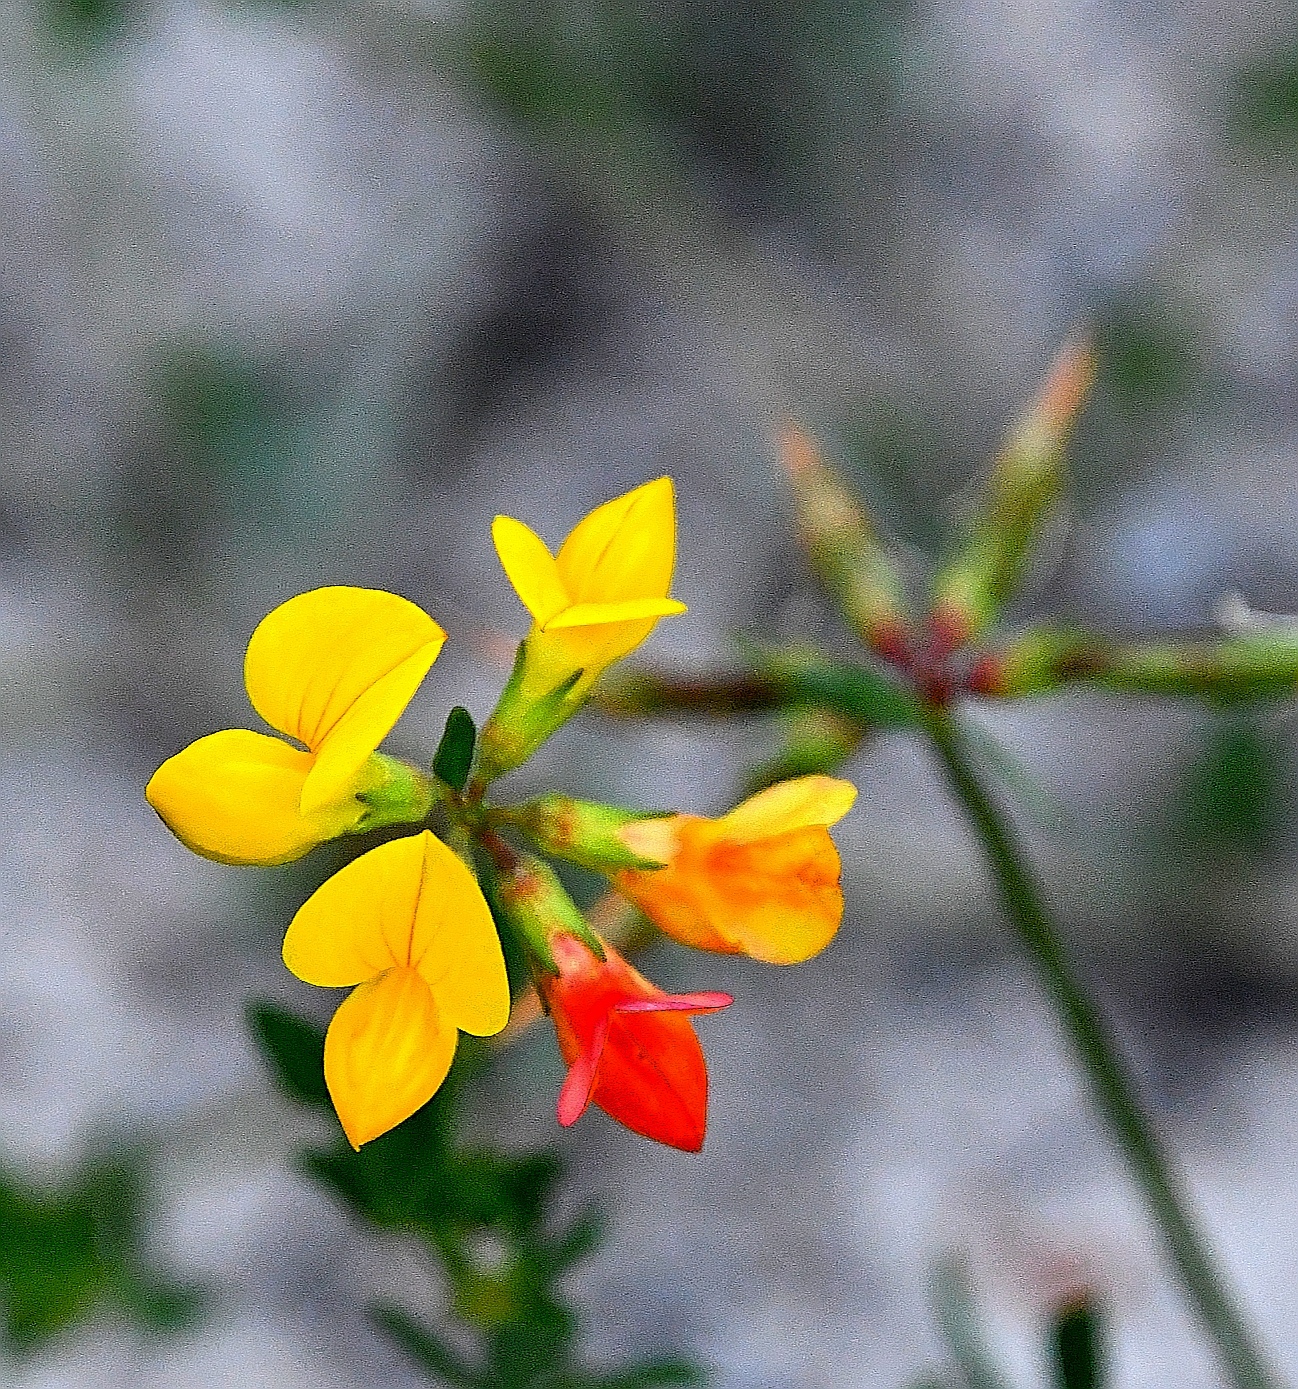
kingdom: Plantae
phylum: Tracheophyta
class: Magnoliopsida
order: Fabales
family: Fabaceae
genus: Lotus
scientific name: Lotus corniculatus
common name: Common bird's-foot-trefoil
